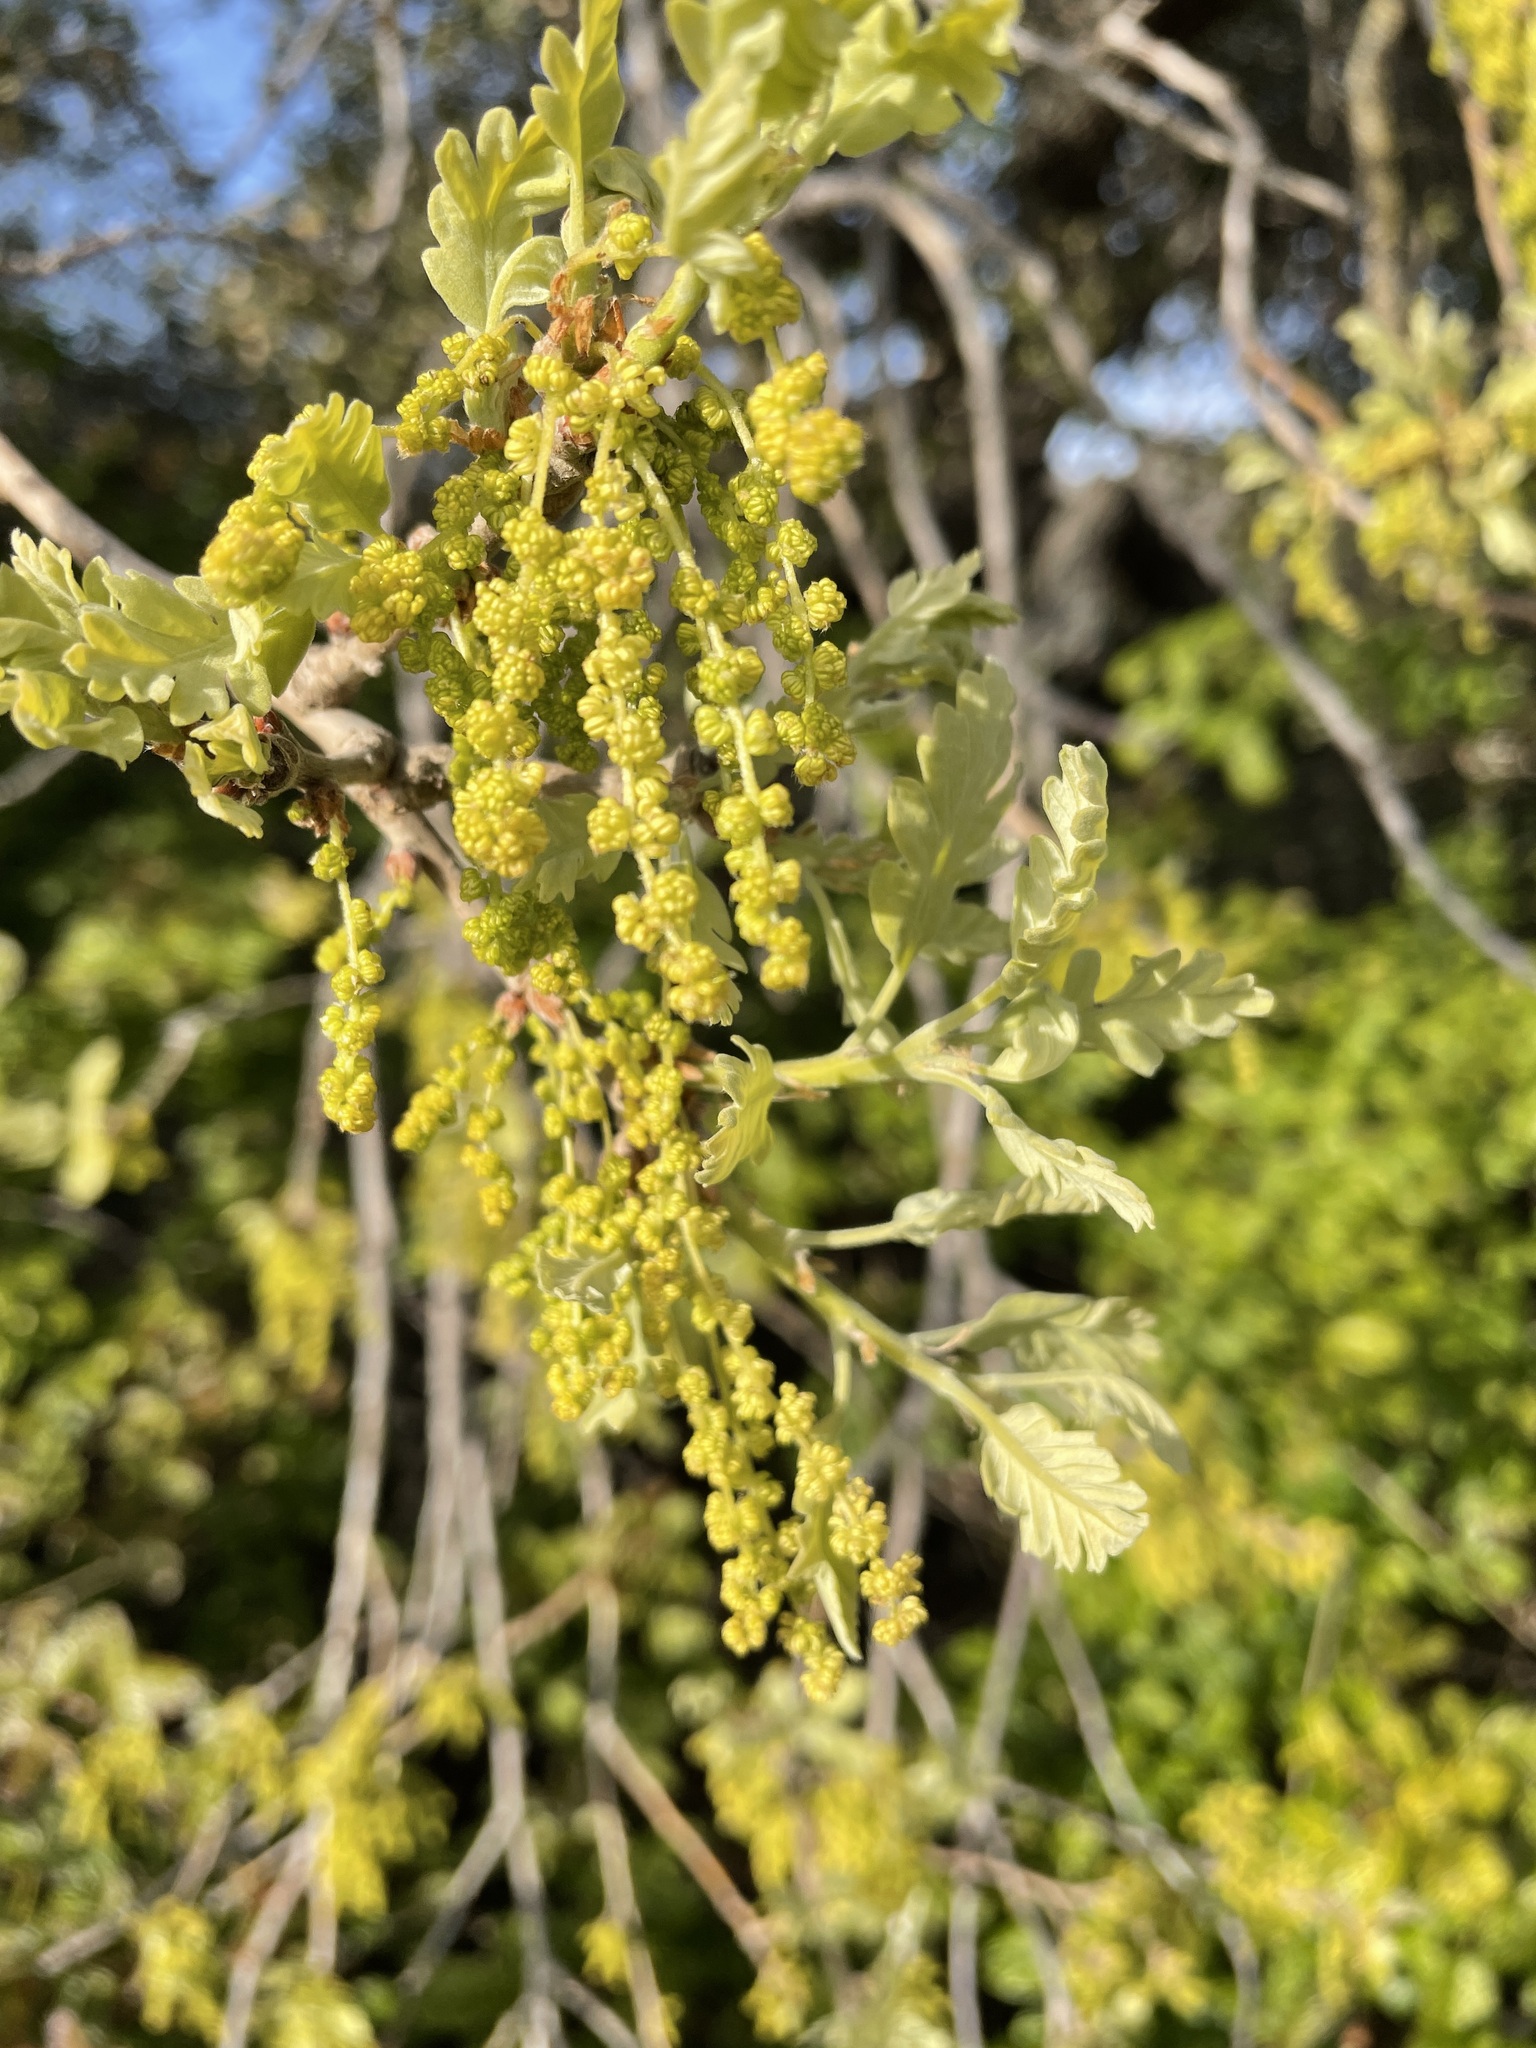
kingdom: Plantae
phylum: Tracheophyta
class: Magnoliopsida
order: Fagales
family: Fagaceae
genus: Quercus
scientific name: Quercus lobata
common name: Valley oak
